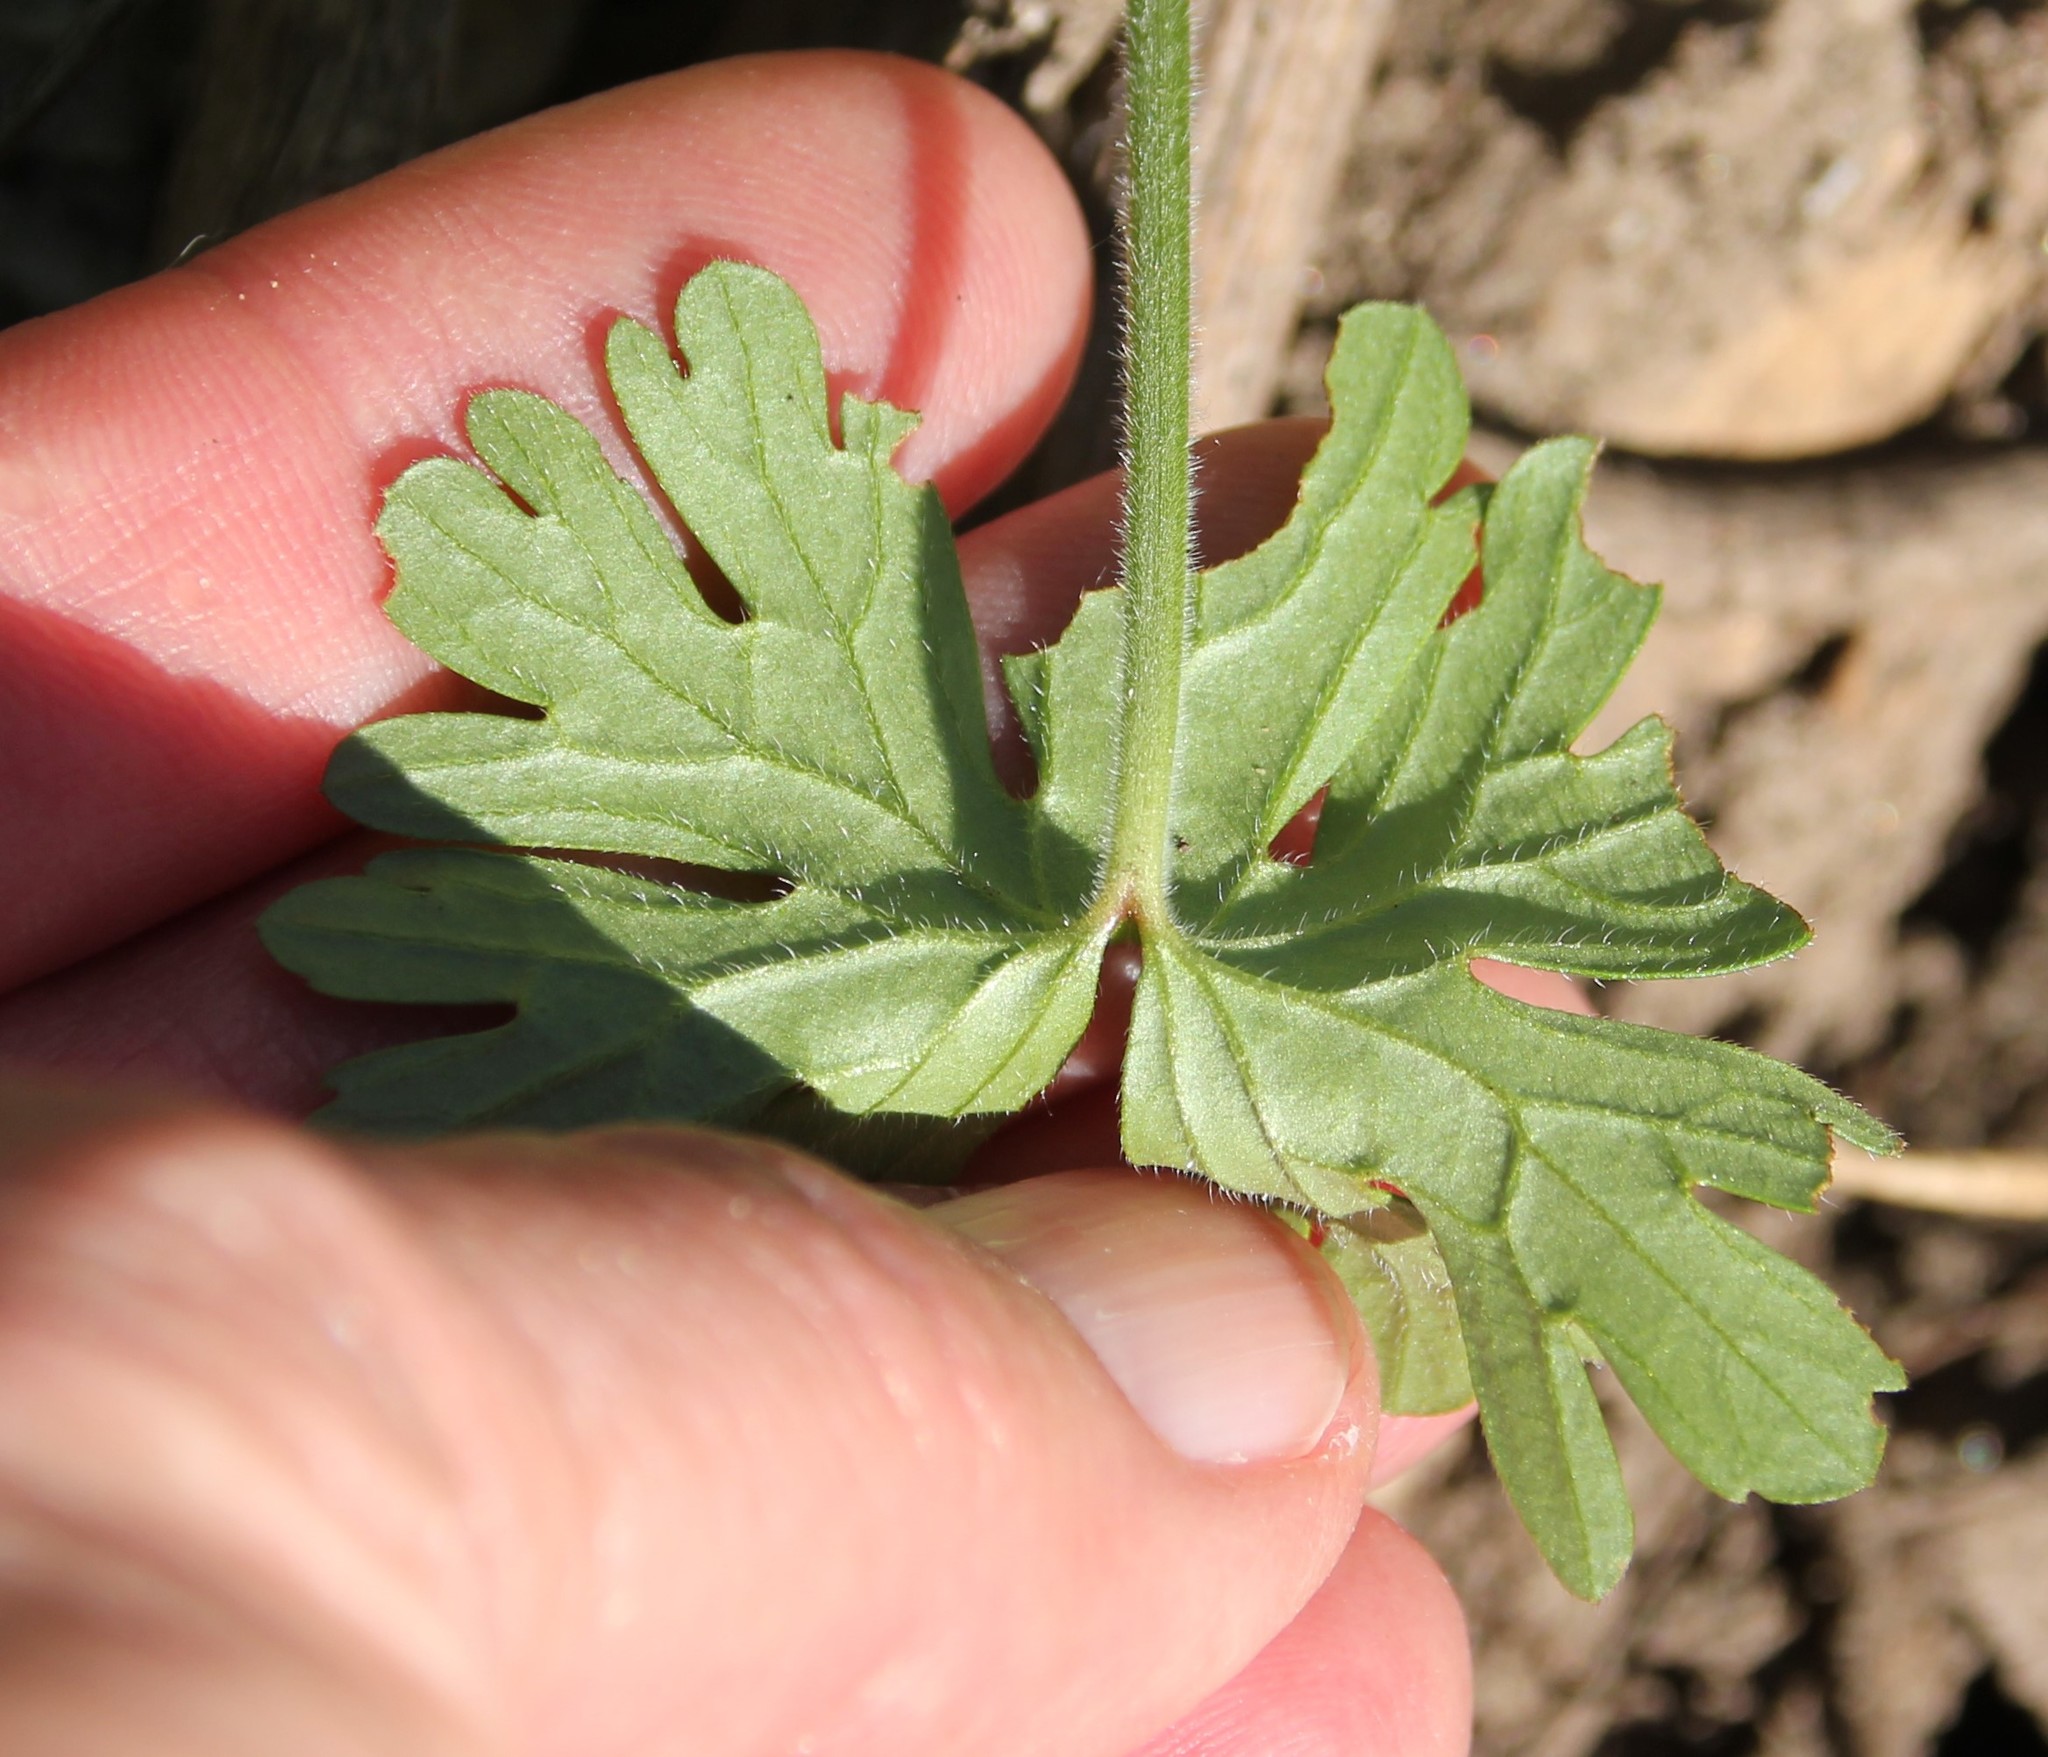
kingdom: Plantae
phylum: Tracheophyta
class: Magnoliopsida
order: Geraniales
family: Geraniaceae
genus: Geranium
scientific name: Geranium
